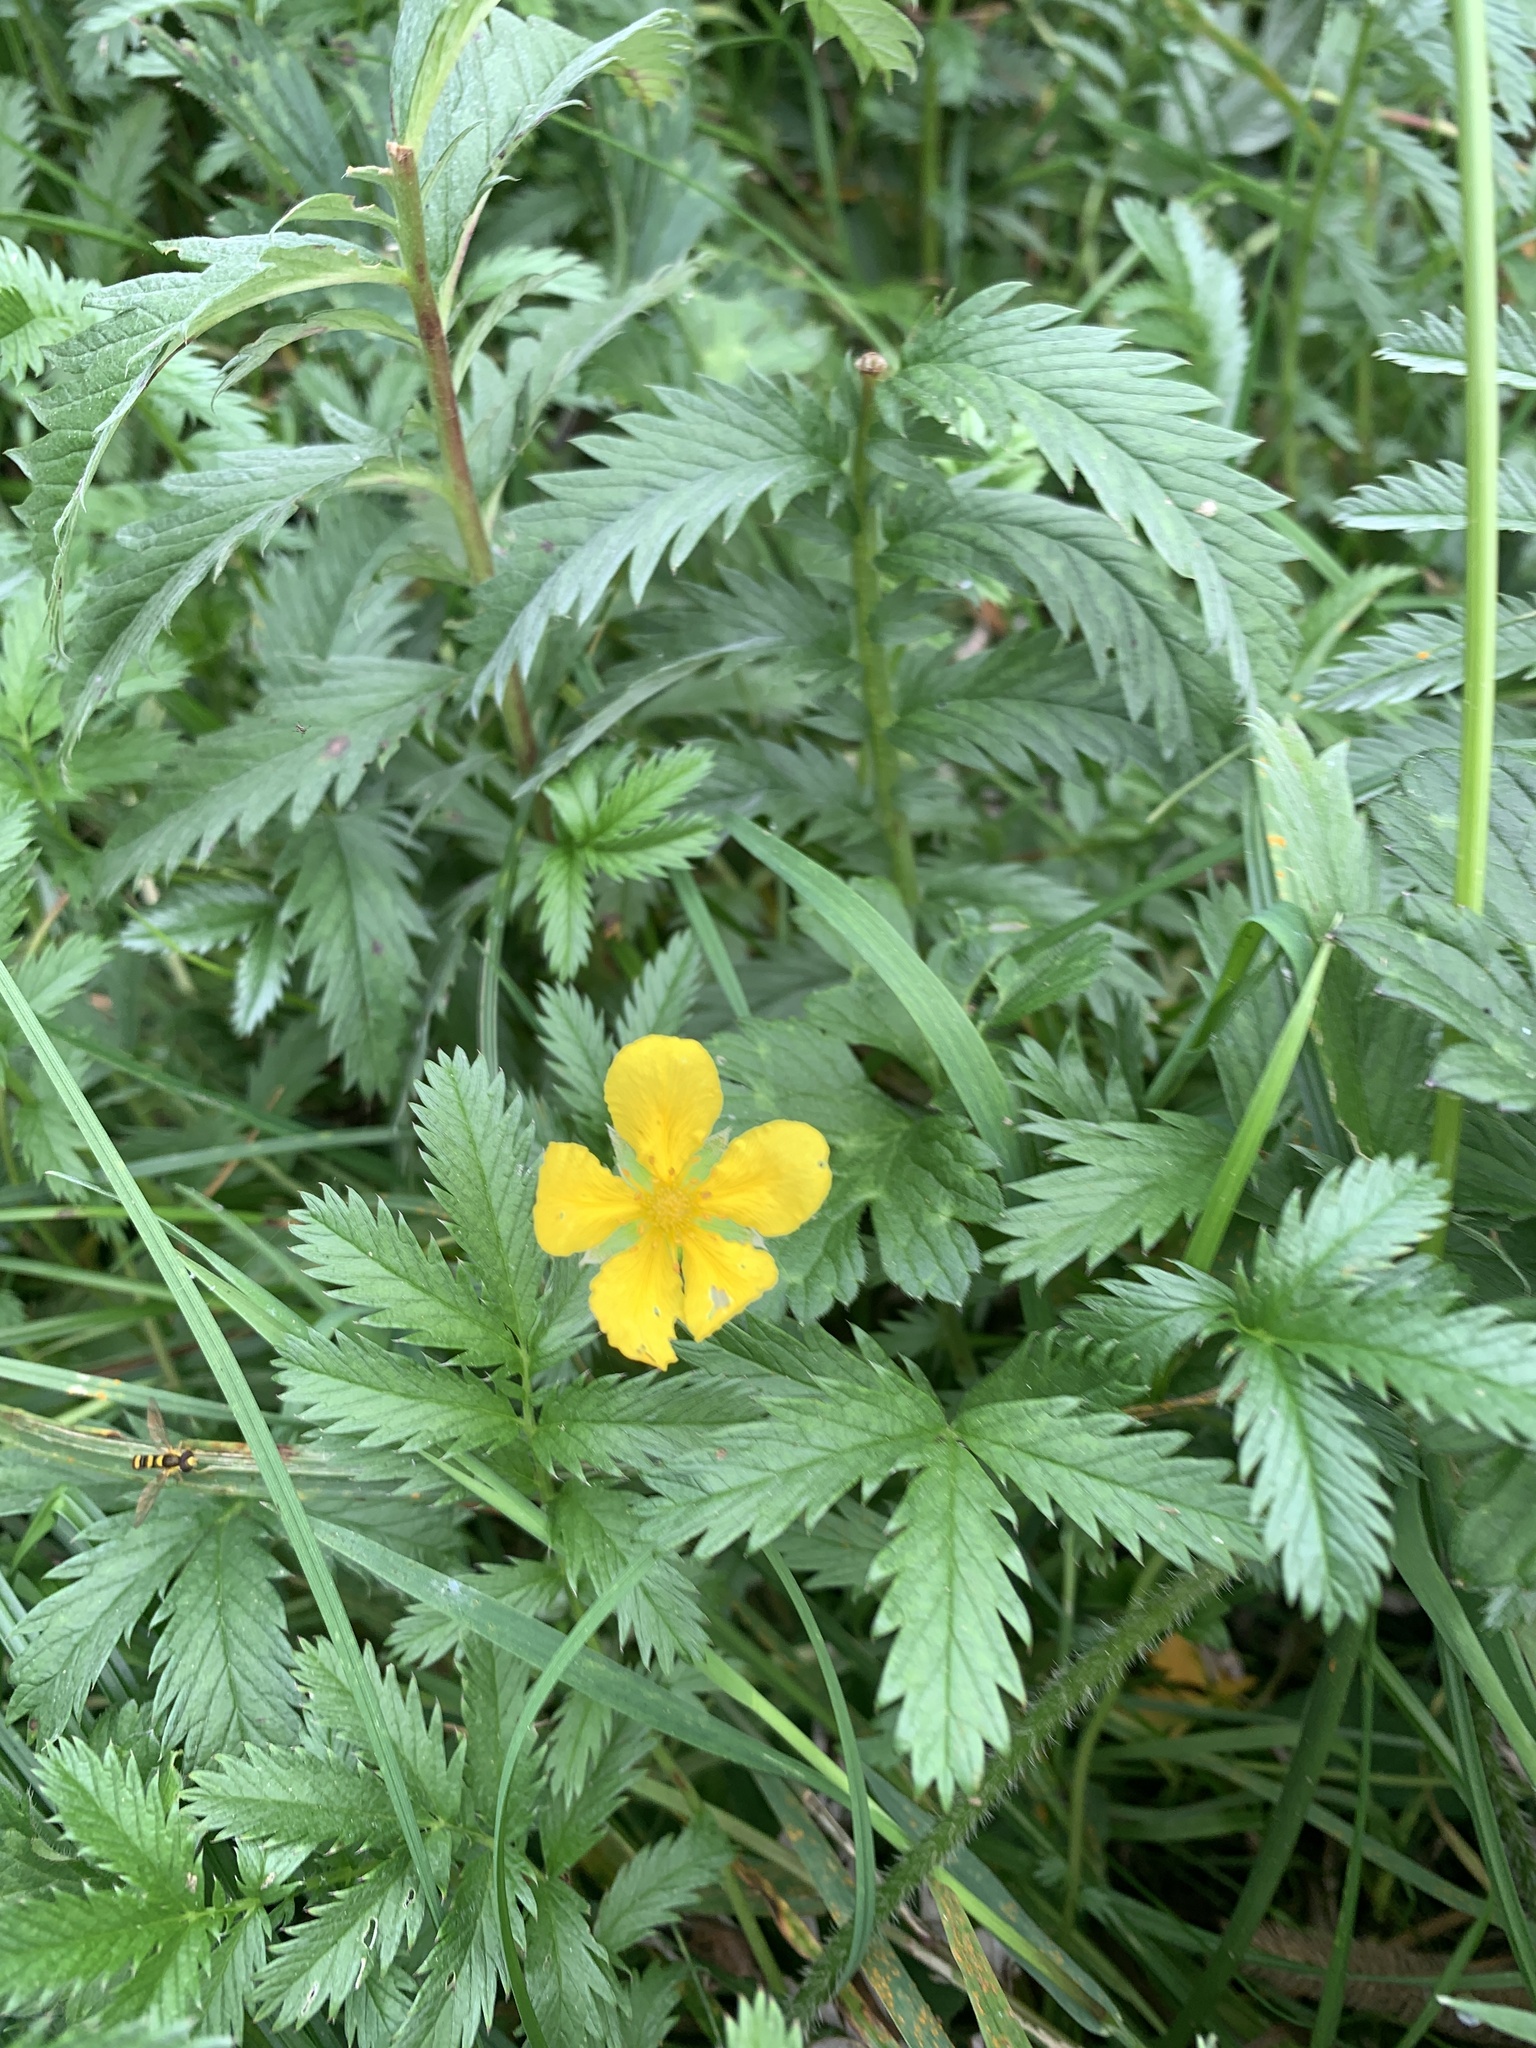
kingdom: Plantae
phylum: Tracheophyta
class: Magnoliopsida
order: Rosales
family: Rosaceae
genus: Argentina
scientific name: Argentina anserina
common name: Common silverweed
